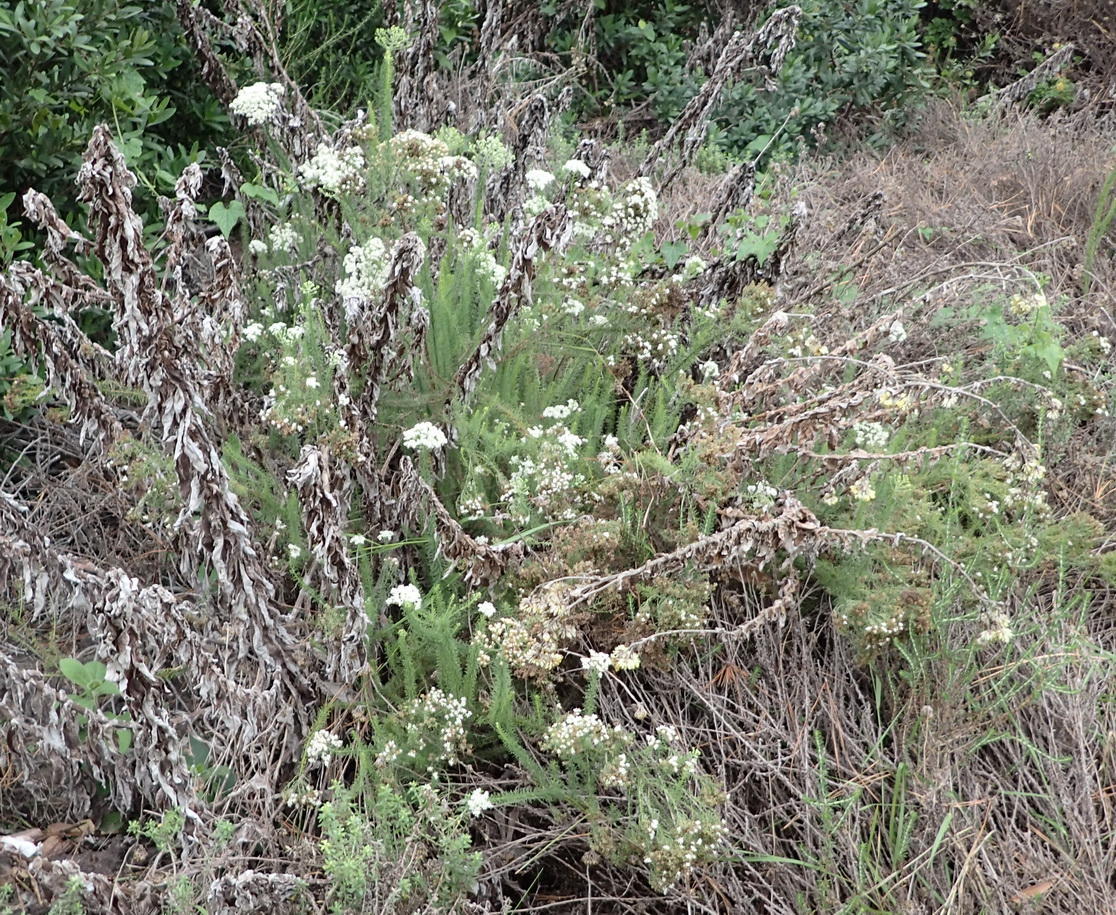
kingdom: Plantae
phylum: Tracheophyta
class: Magnoliopsida
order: Lamiales
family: Scrophulariaceae
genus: Selago
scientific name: Selago corymbosa
